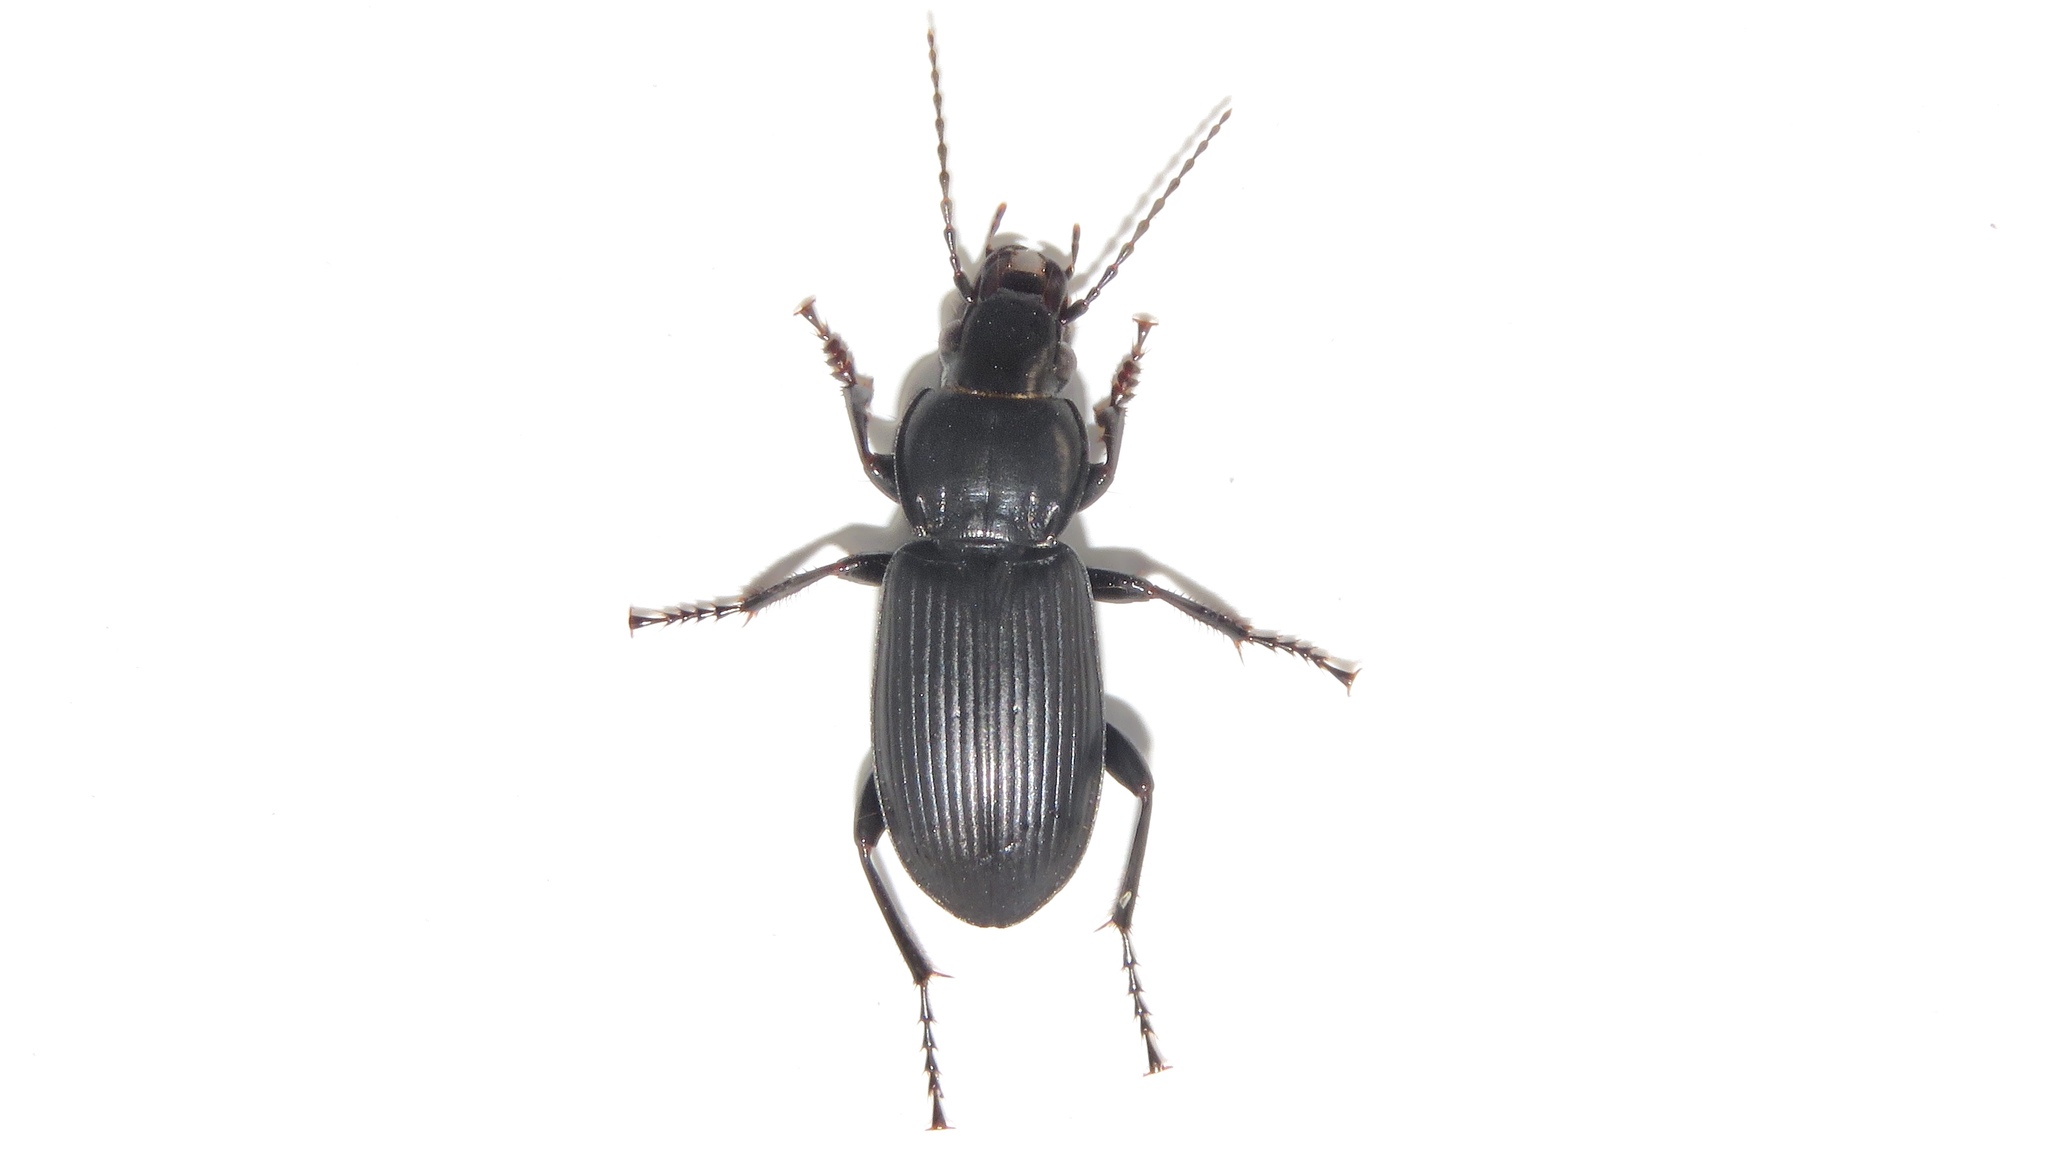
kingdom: Animalia
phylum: Arthropoda
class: Insecta
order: Coleoptera
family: Carabidae
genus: Pterostichus
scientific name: Pterostichus melanarius
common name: European dark harp ground beetle
